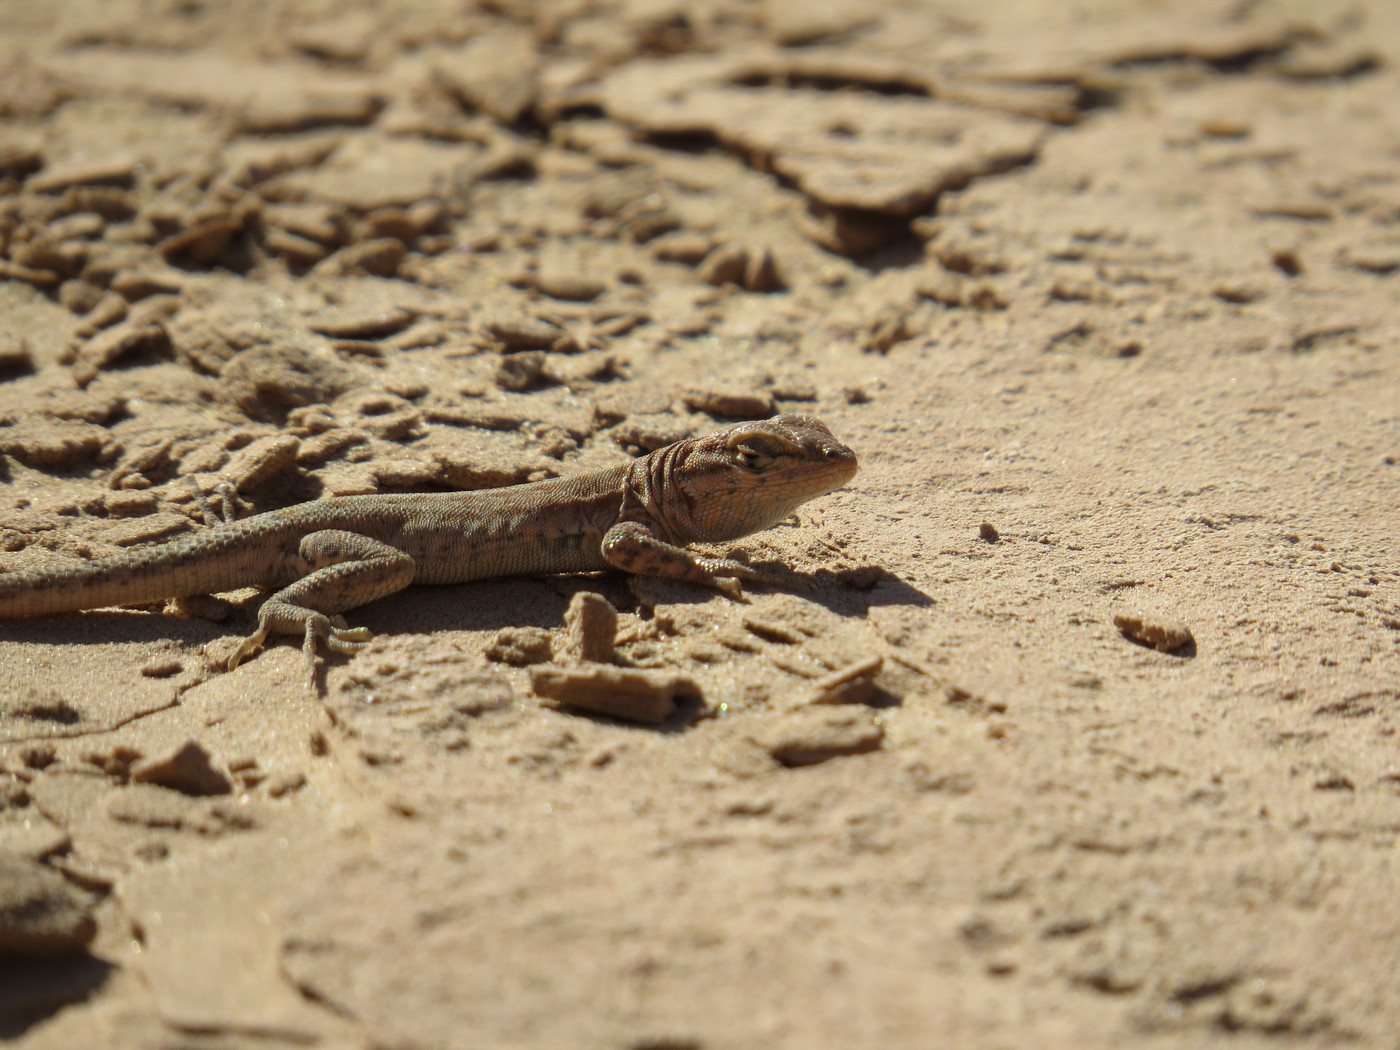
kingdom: Animalia
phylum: Chordata
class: Squamata
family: Phrynosomatidae
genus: Uta
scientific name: Uta stansburiana
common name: Side-blotched lizard
